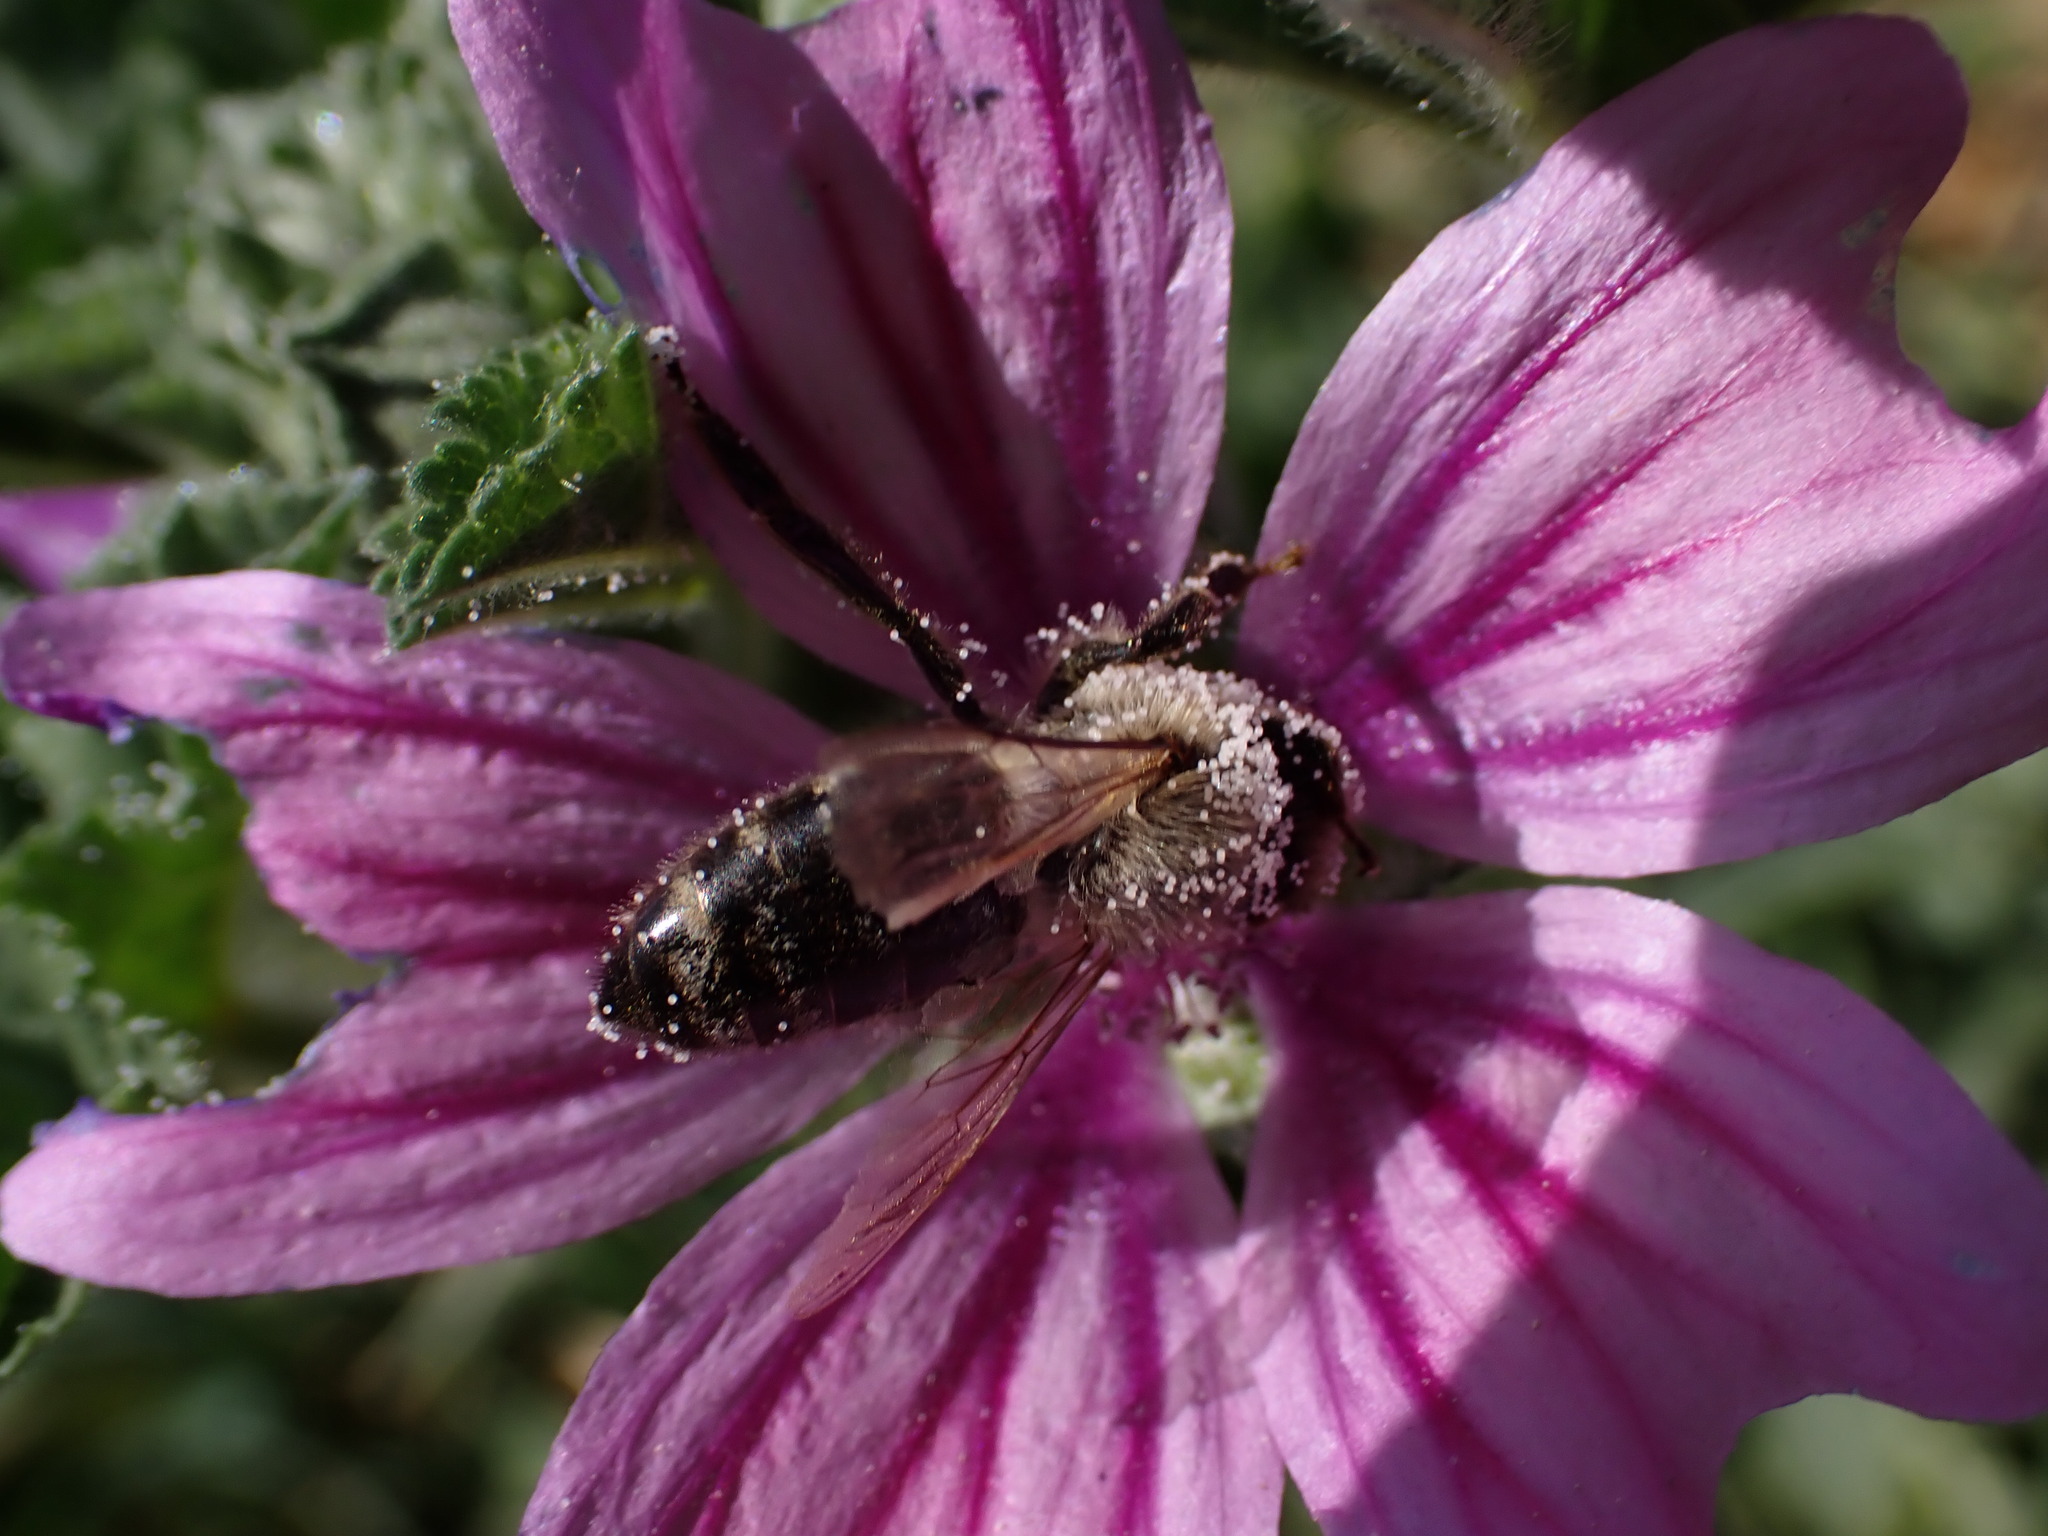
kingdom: Animalia
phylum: Arthropoda
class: Insecta
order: Hymenoptera
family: Apidae
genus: Apis
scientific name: Apis mellifera
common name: Honey bee
